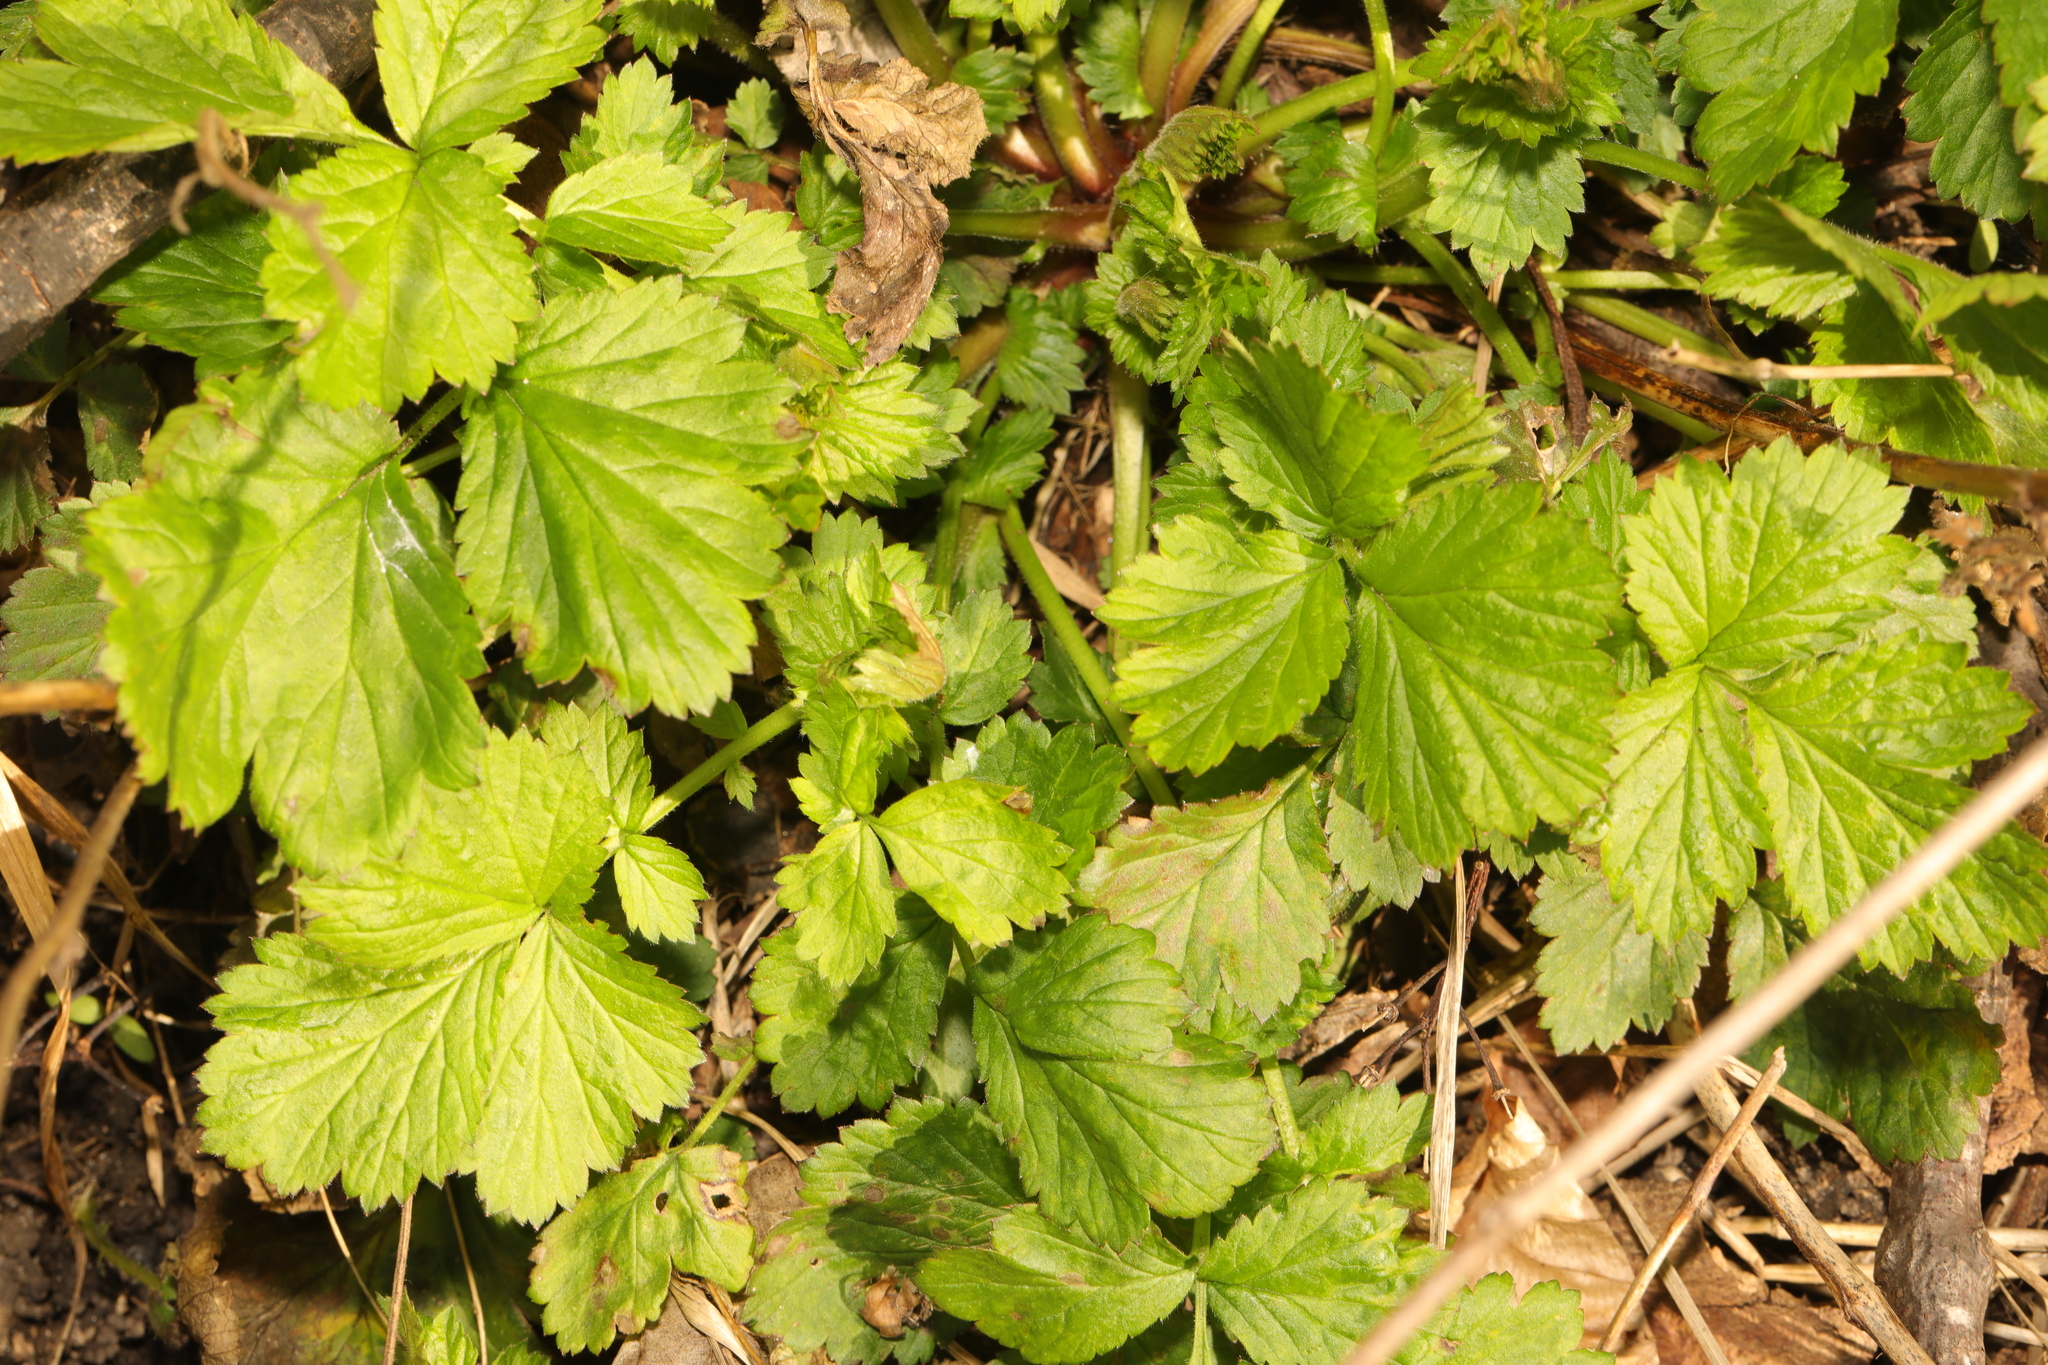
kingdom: Plantae
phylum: Tracheophyta
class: Magnoliopsida
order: Rosales
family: Rosaceae
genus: Geum
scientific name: Geum urbanum
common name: Wood avens
